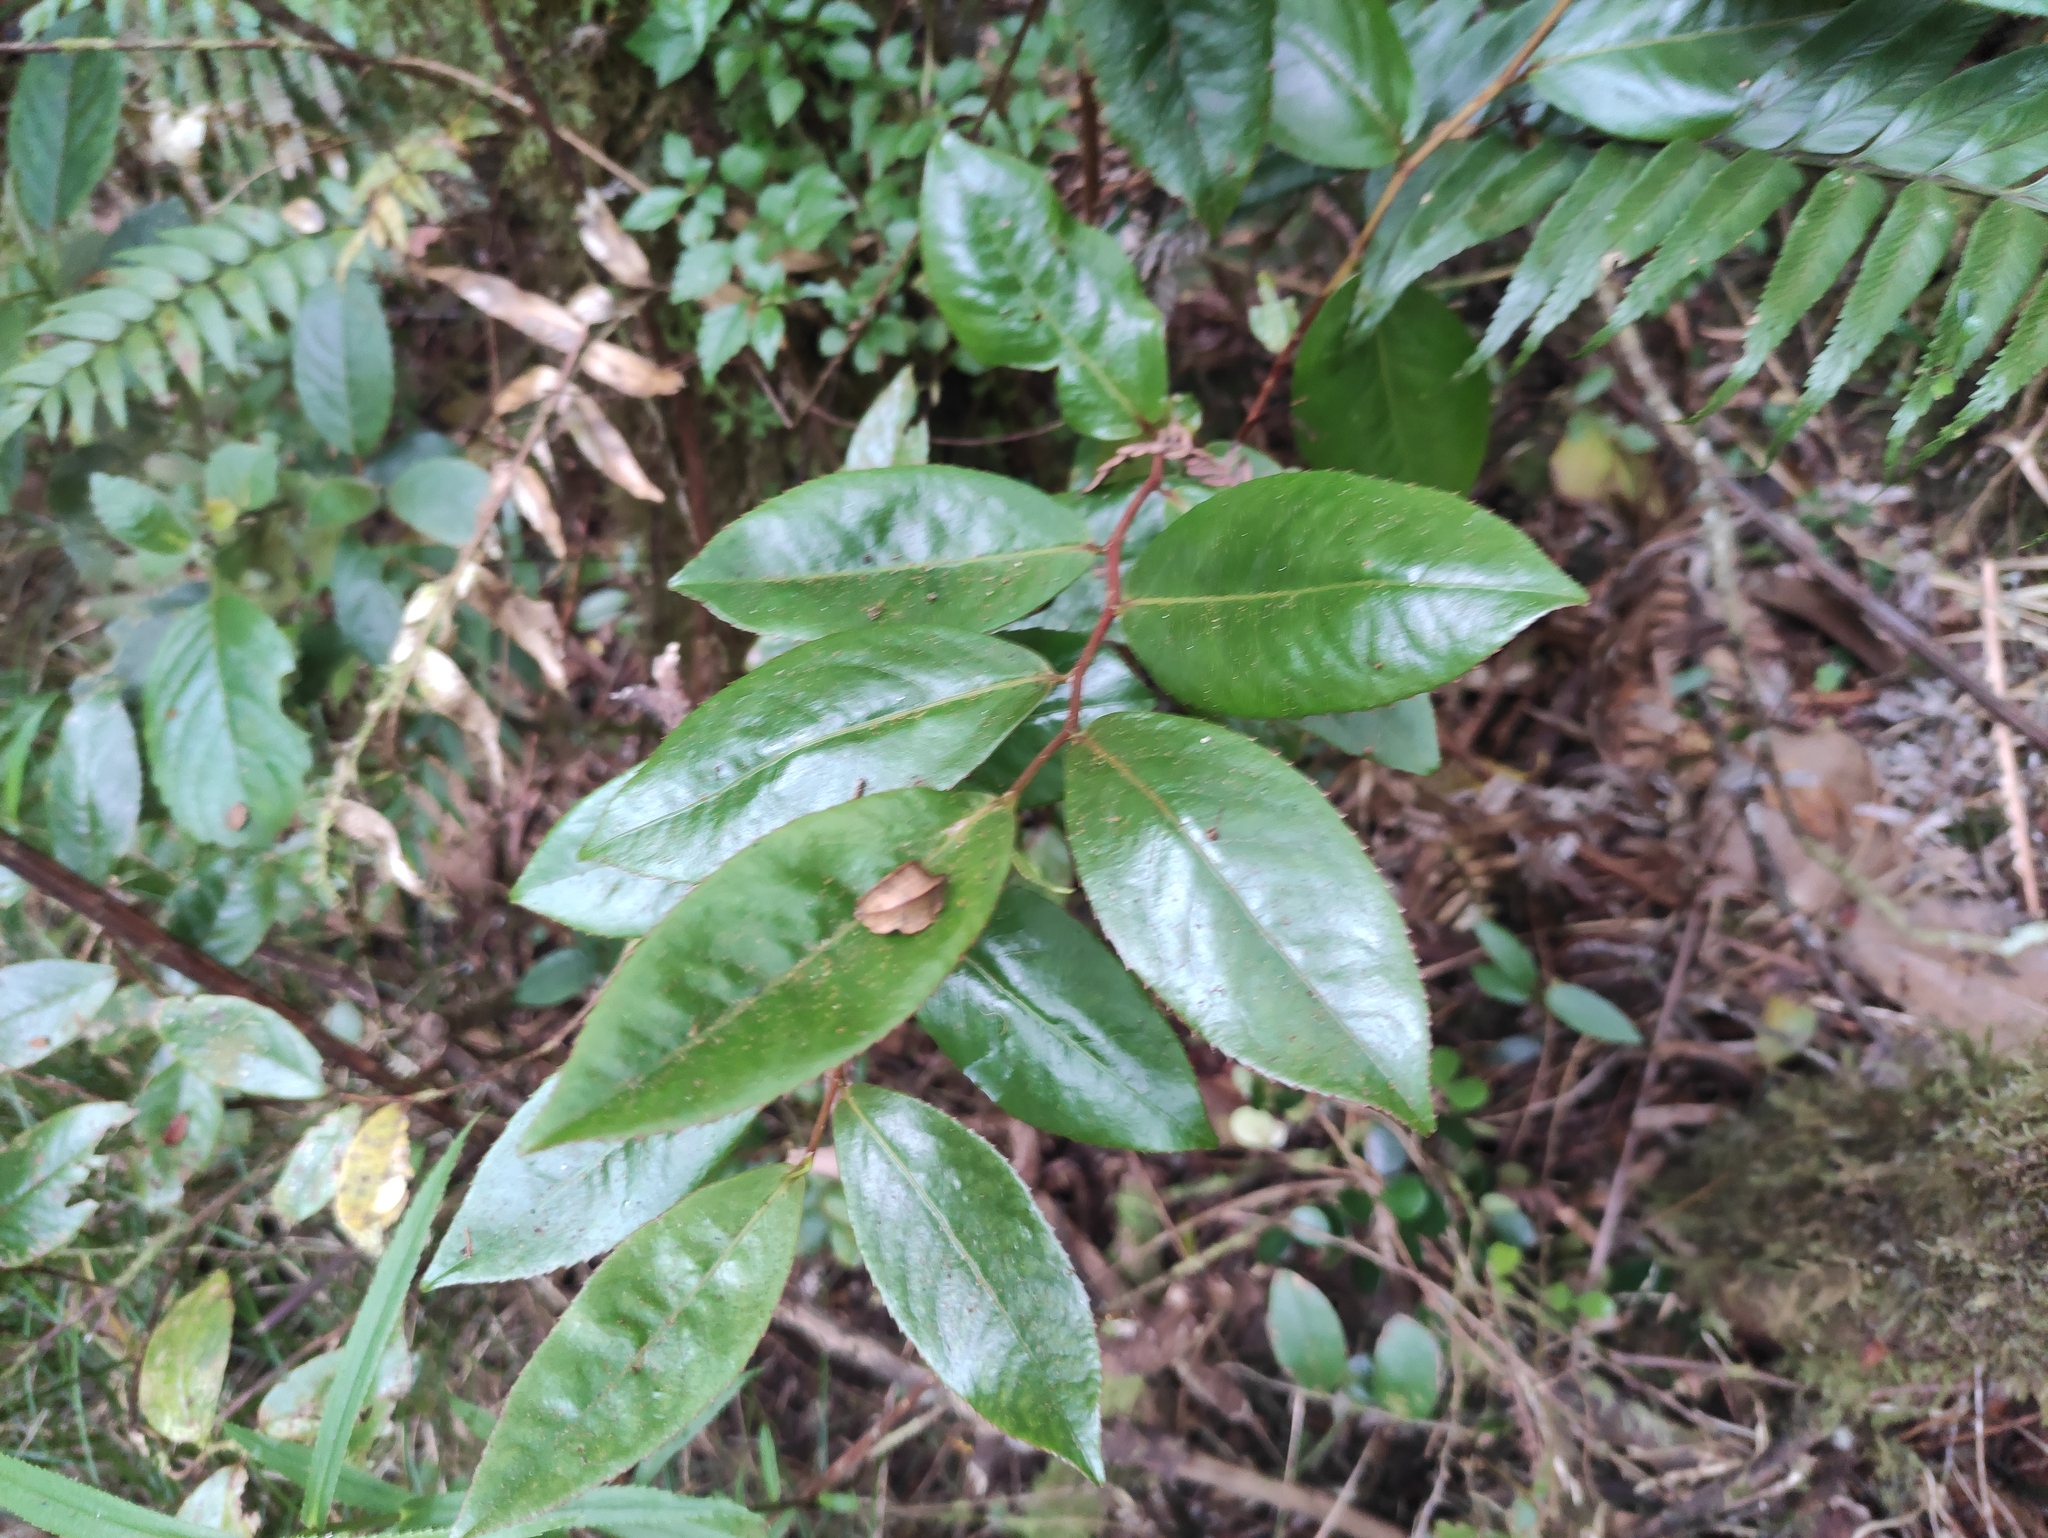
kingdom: Plantae
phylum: Tracheophyta
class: Magnoliopsida
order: Crossosomatales
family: Aphloiaceae
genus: Aphloia
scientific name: Aphloia theiformis
